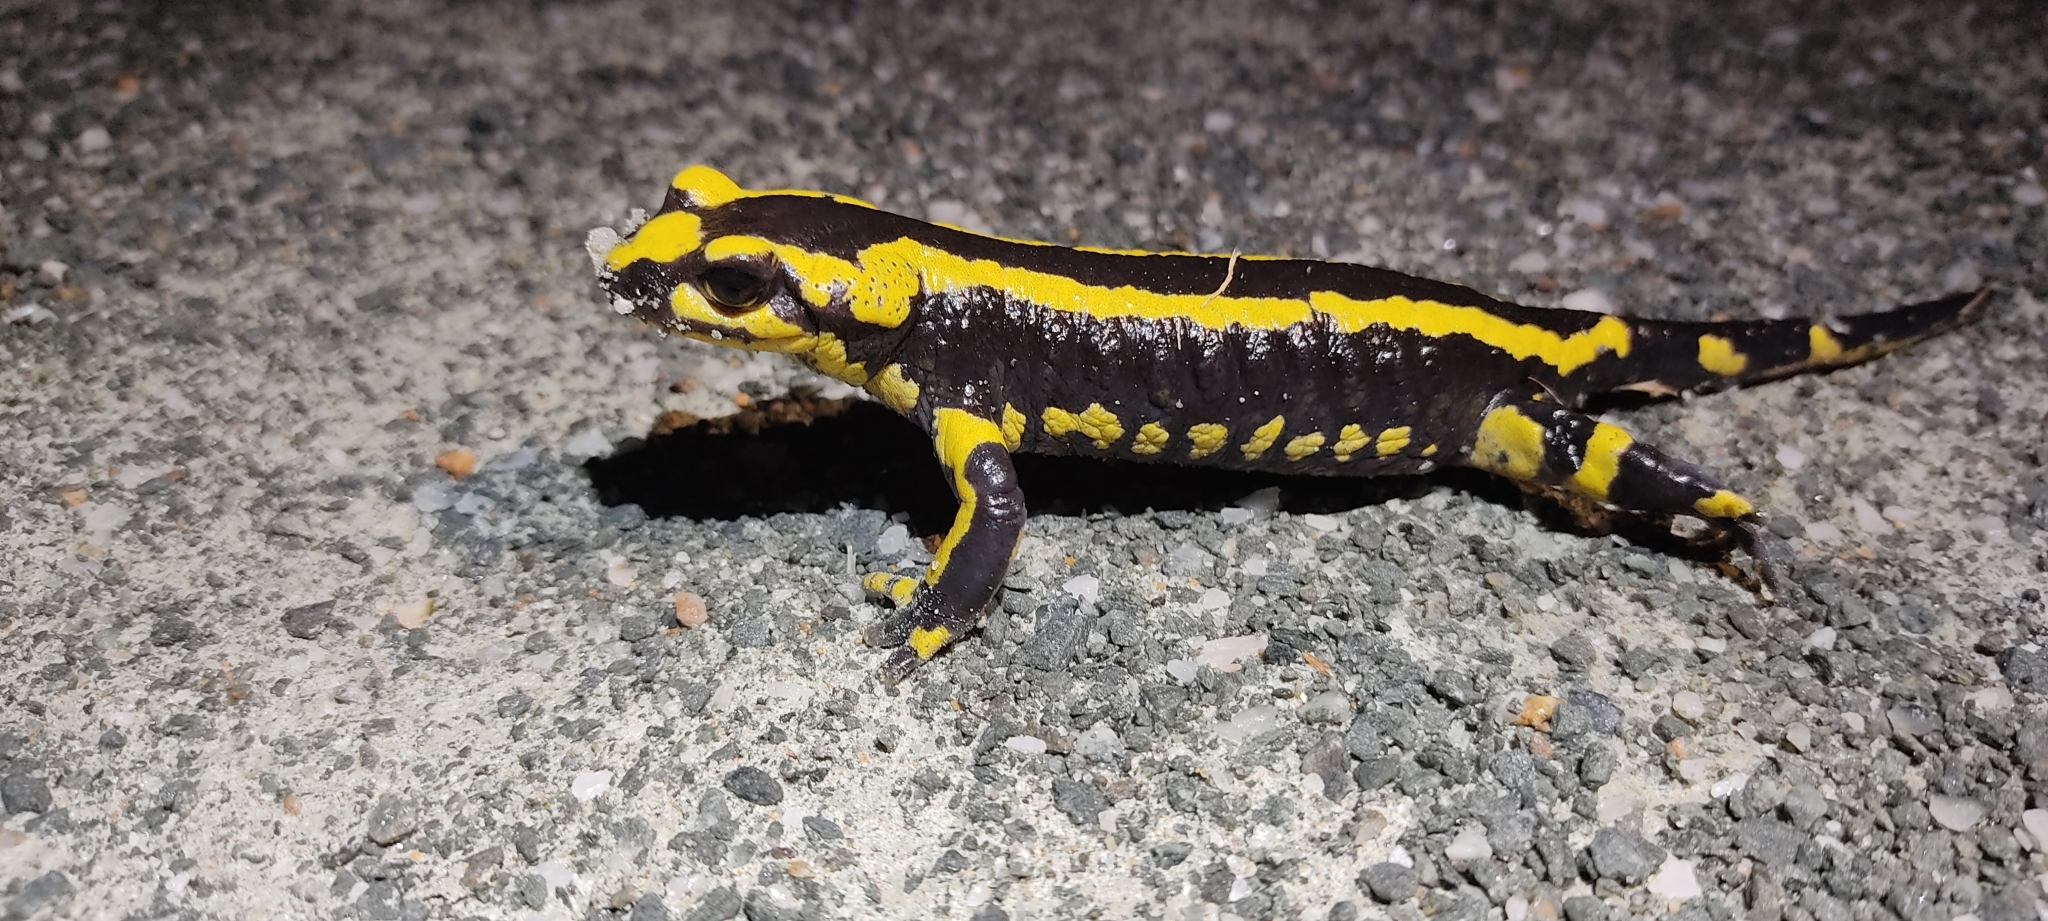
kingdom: Animalia
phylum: Chordata
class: Amphibia
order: Caudata
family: Salamandridae
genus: Salamandra
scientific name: Salamandra salamandra
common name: Fire salamander
